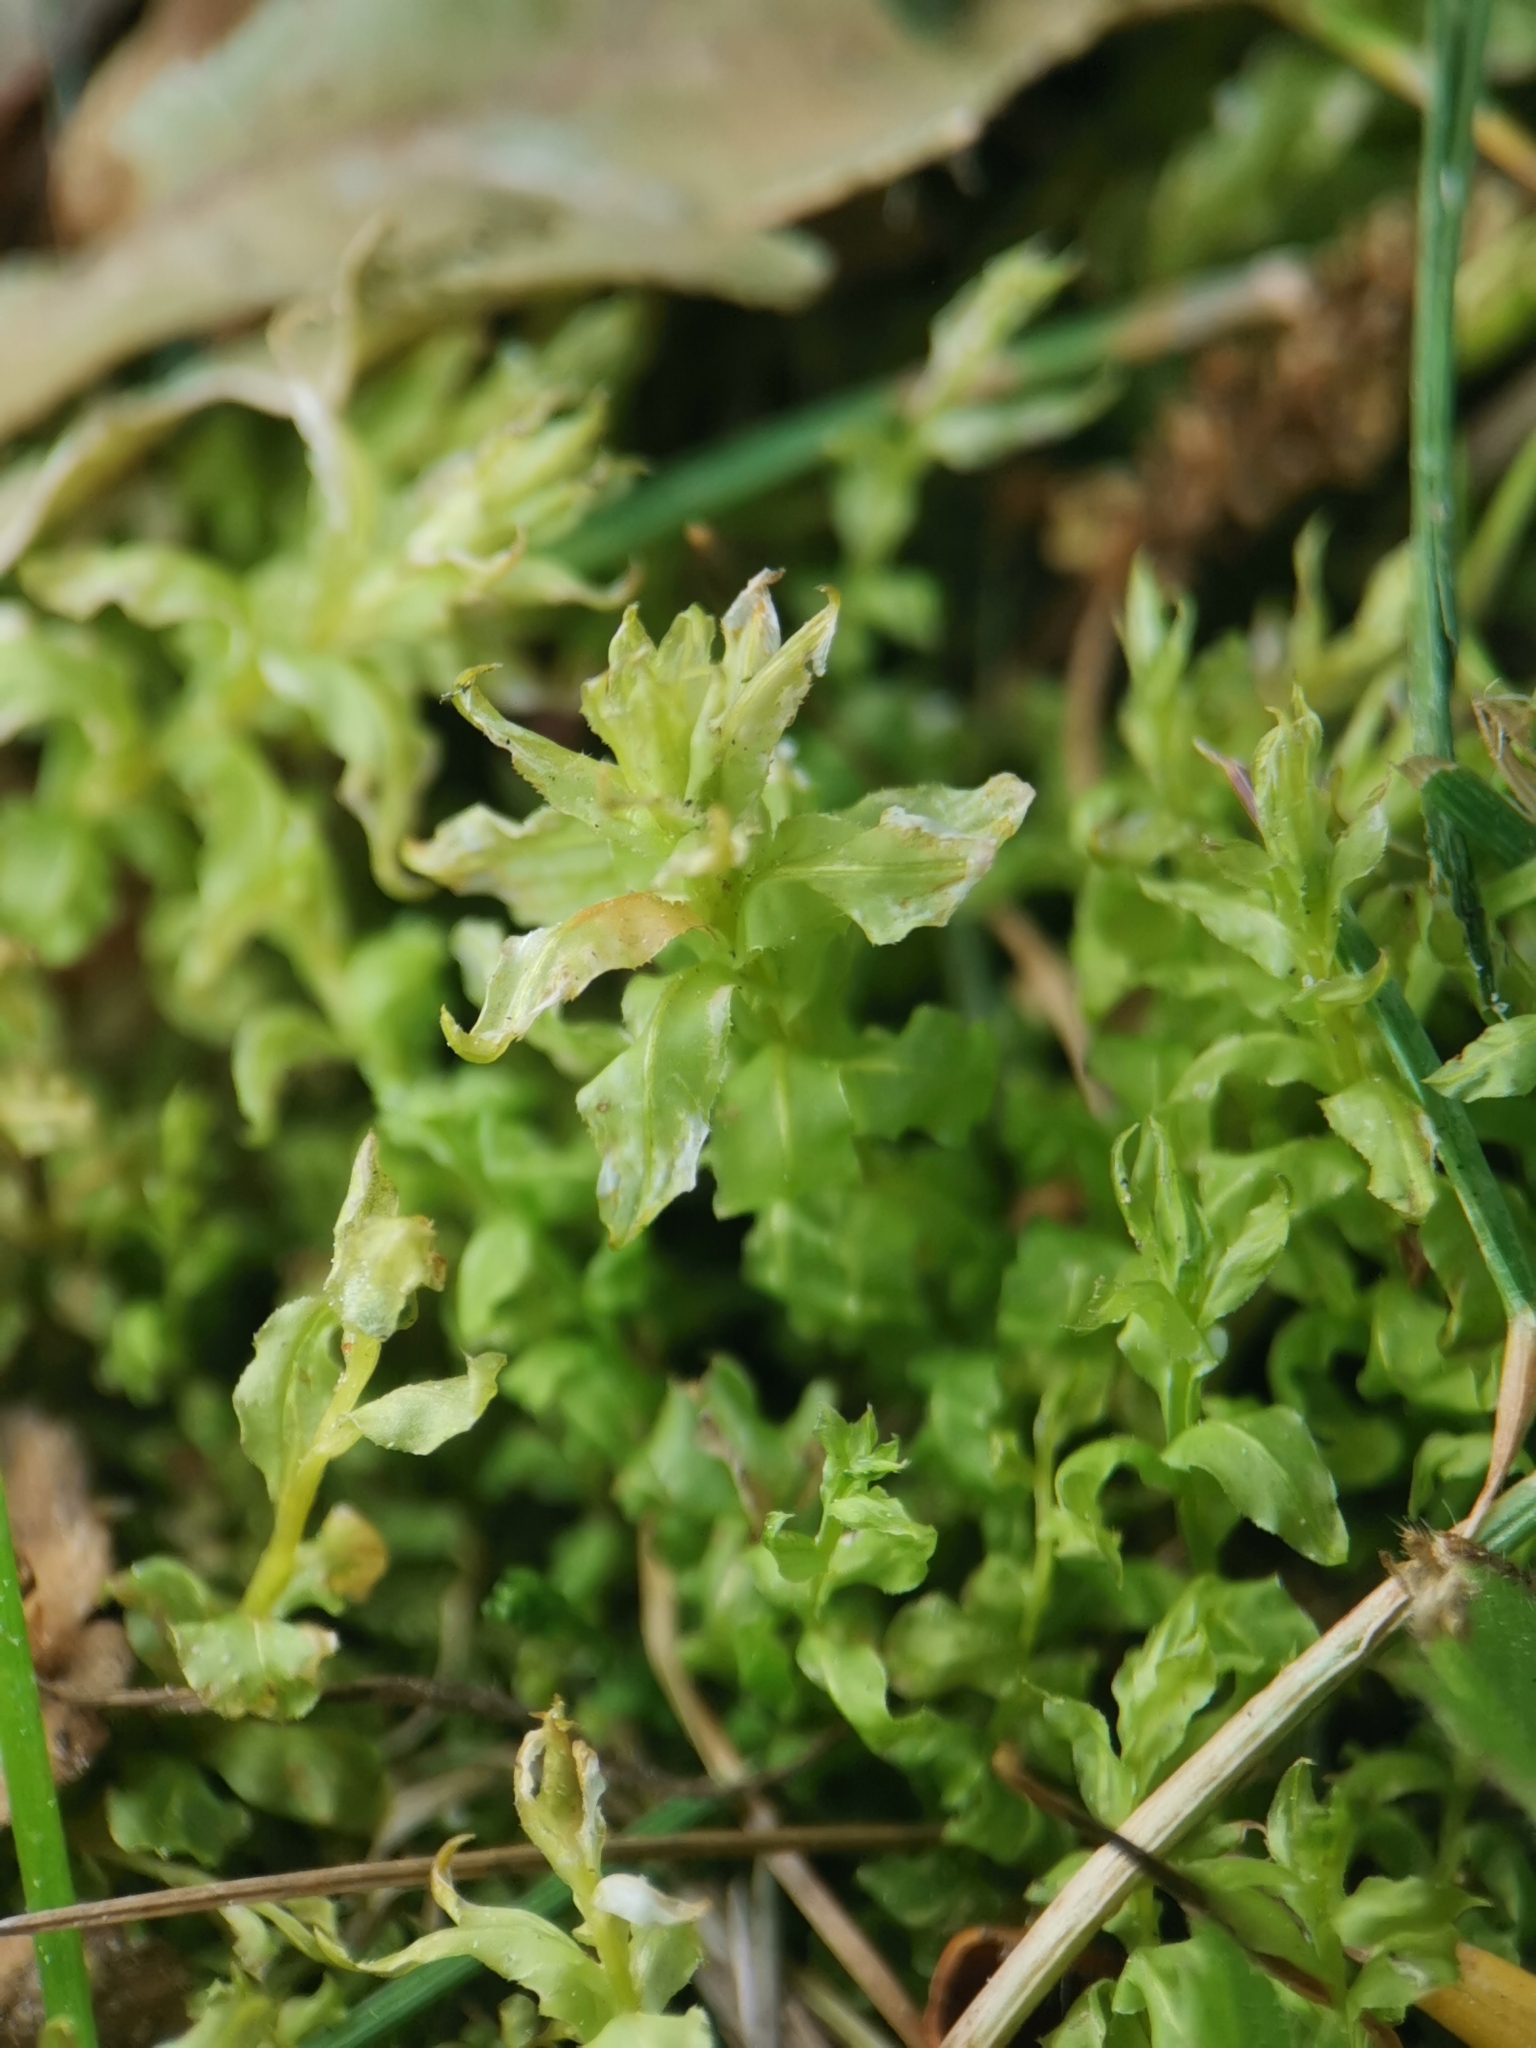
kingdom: Plantae
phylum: Bryophyta
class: Bryopsida
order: Bryales
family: Mniaceae
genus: Plagiomnium
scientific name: Plagiomnium undulatum
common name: Hart's-tongue thyme-moss
